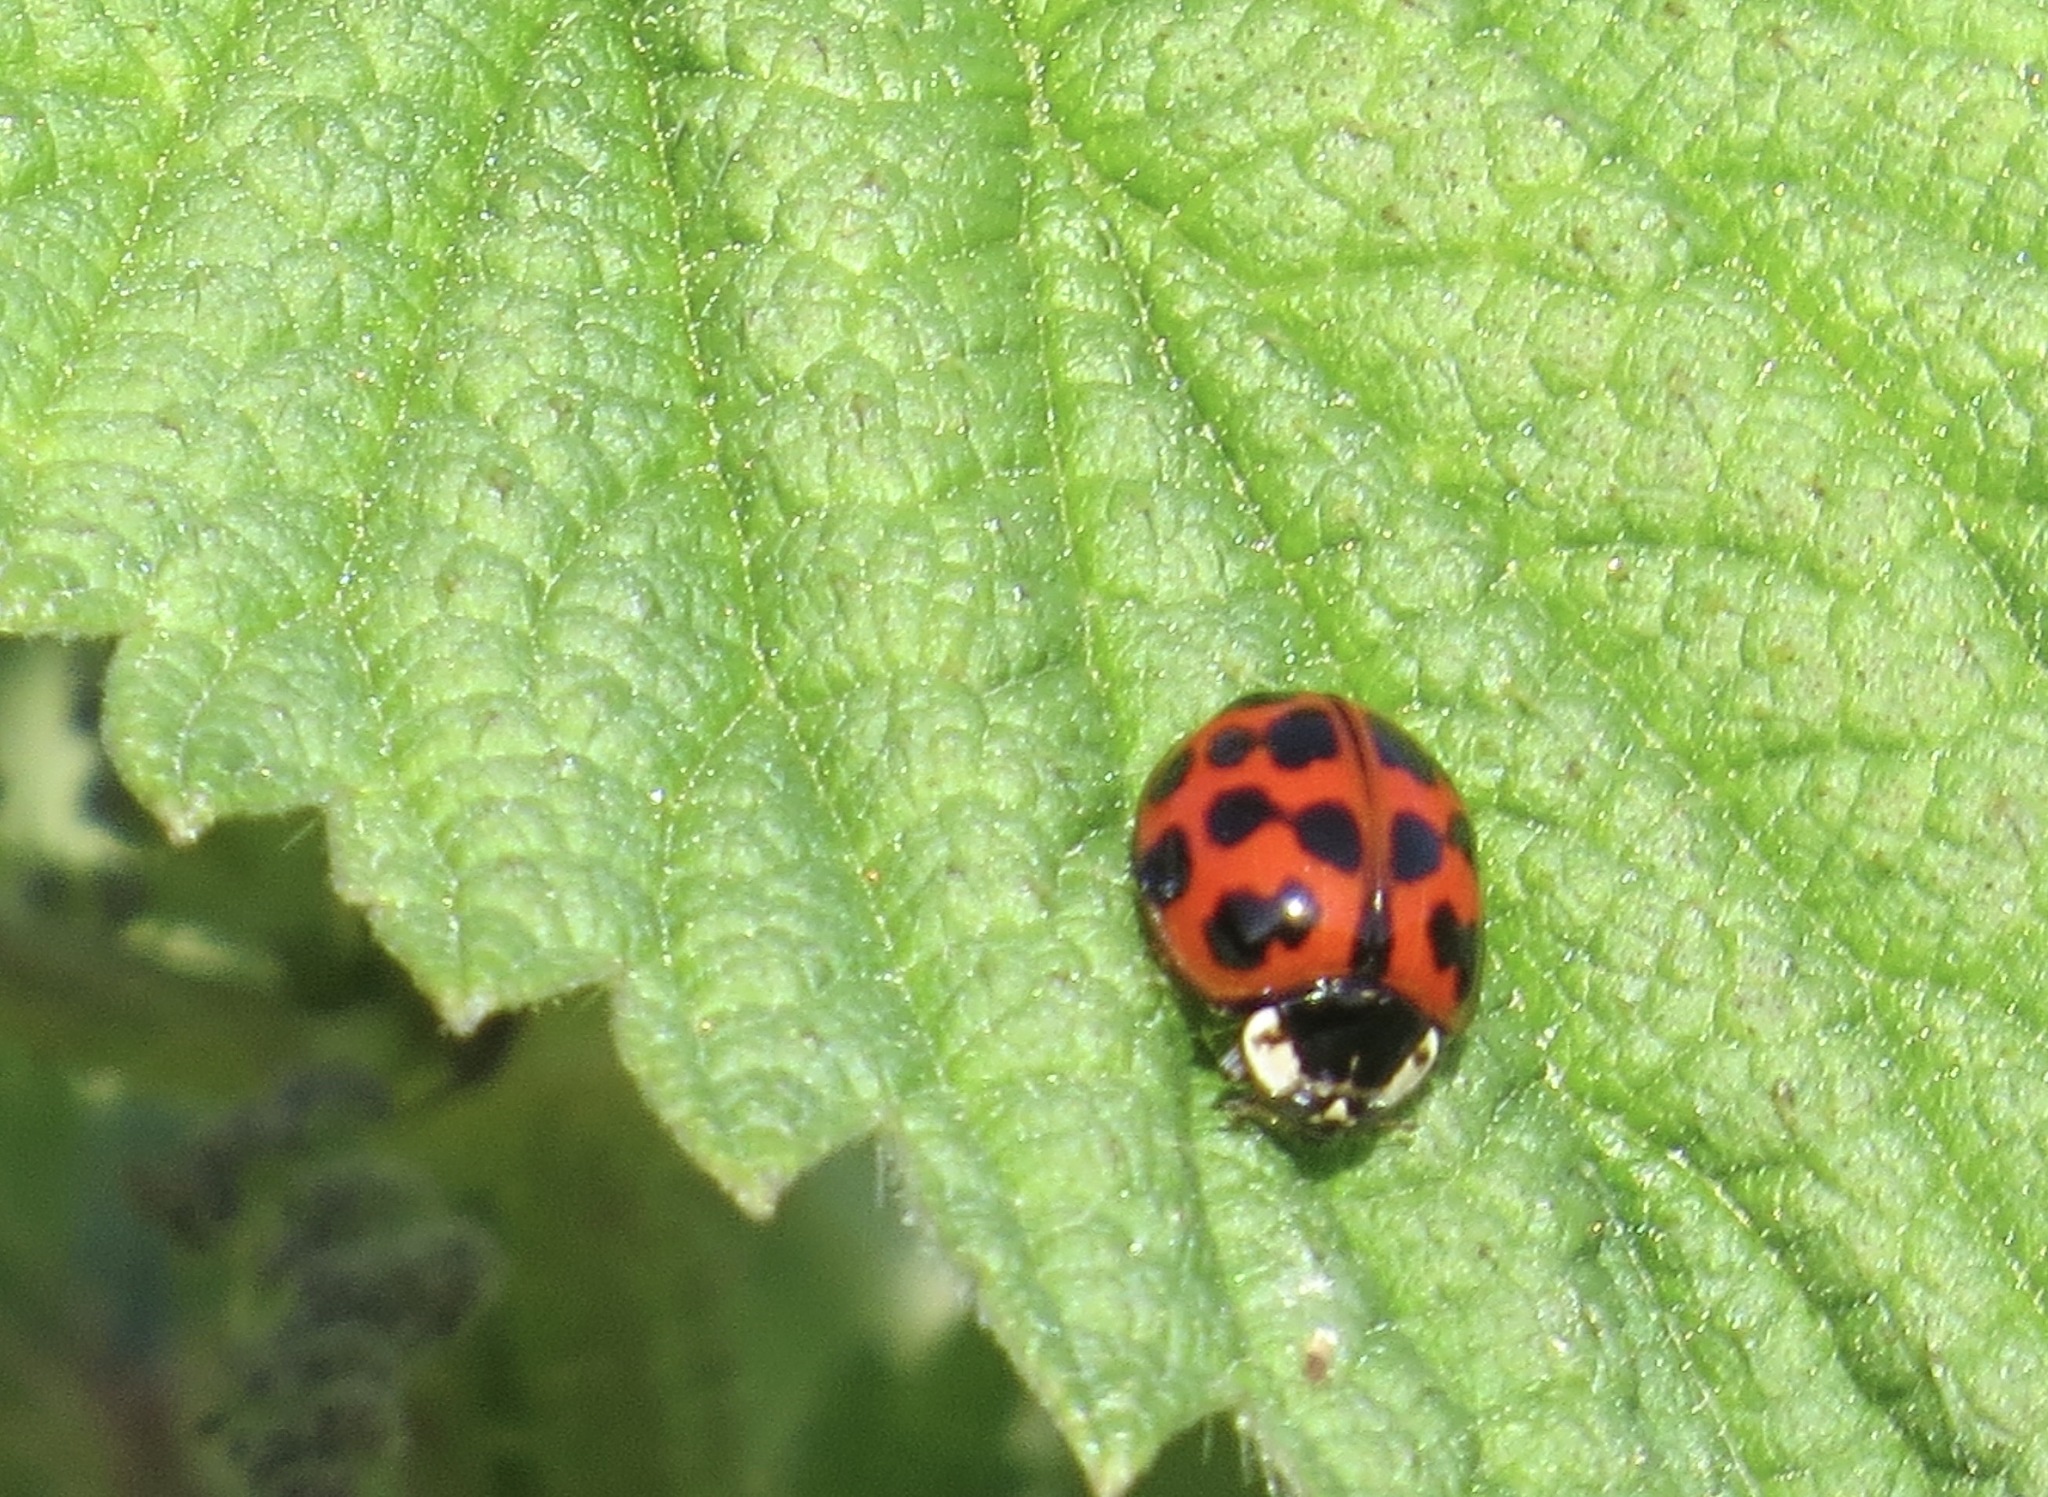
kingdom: Animalia
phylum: Arthropoda
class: Insecta
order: Coleoptera
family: Coccinellidae
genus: Harmonia
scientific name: Harmonia axyridis
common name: Harlequin ladybird
